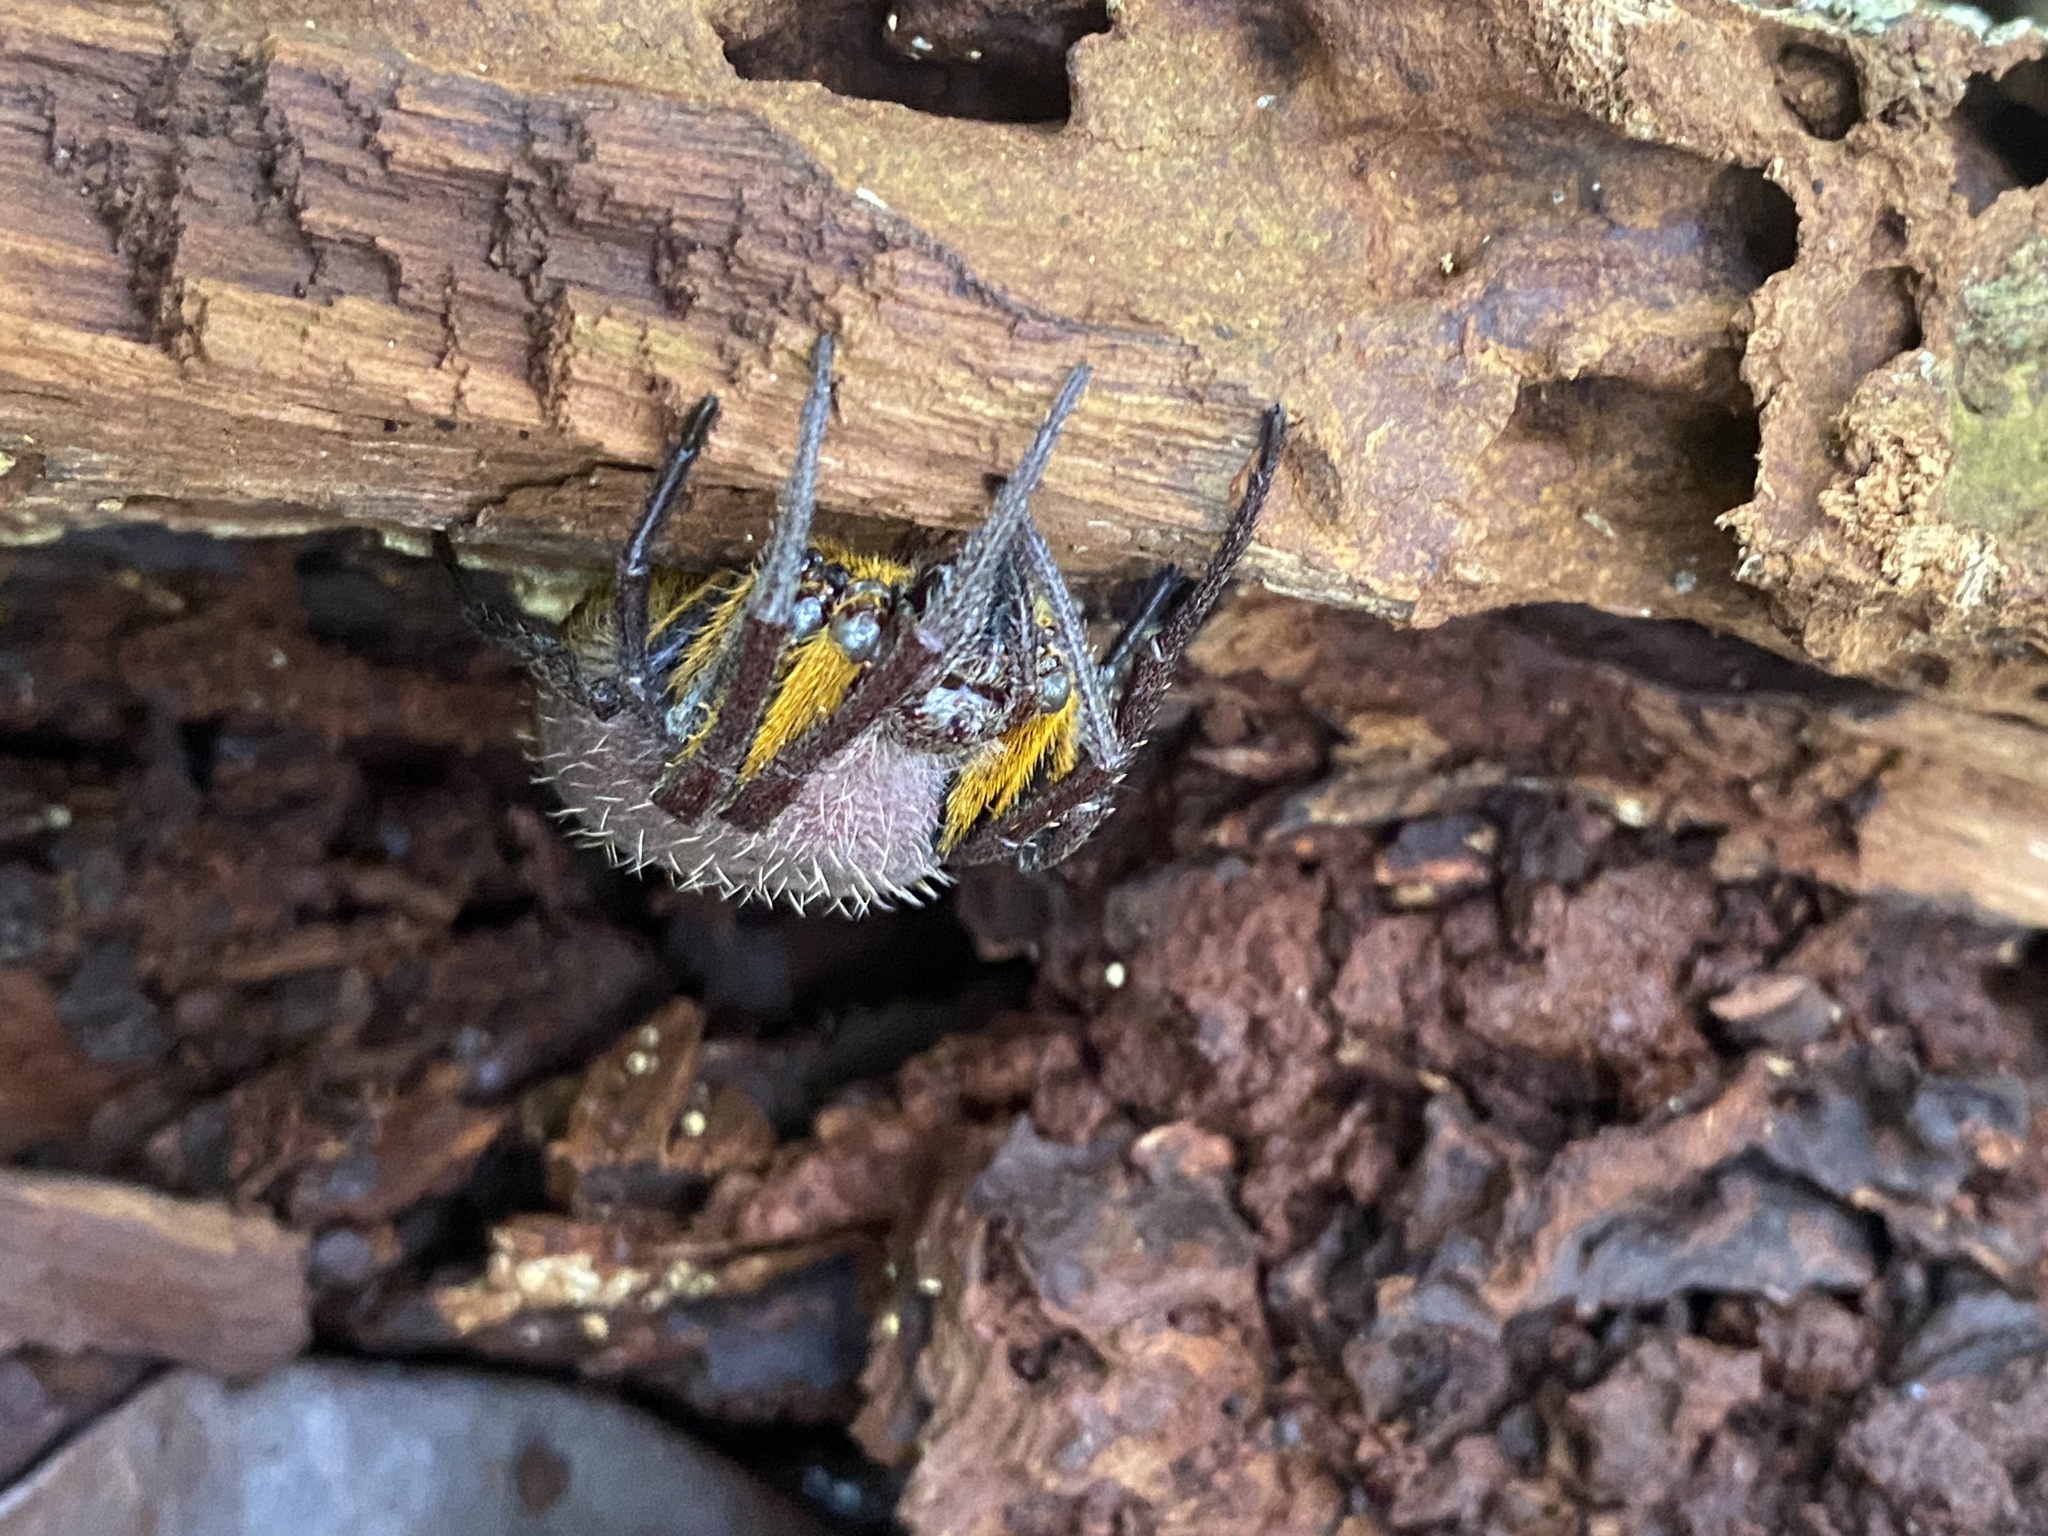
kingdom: Animalia
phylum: Arthropoda
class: Arachnida
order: Araneae
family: Araneidae
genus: Eriophora
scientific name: Eriophora fuliginea
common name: Orb weavers
